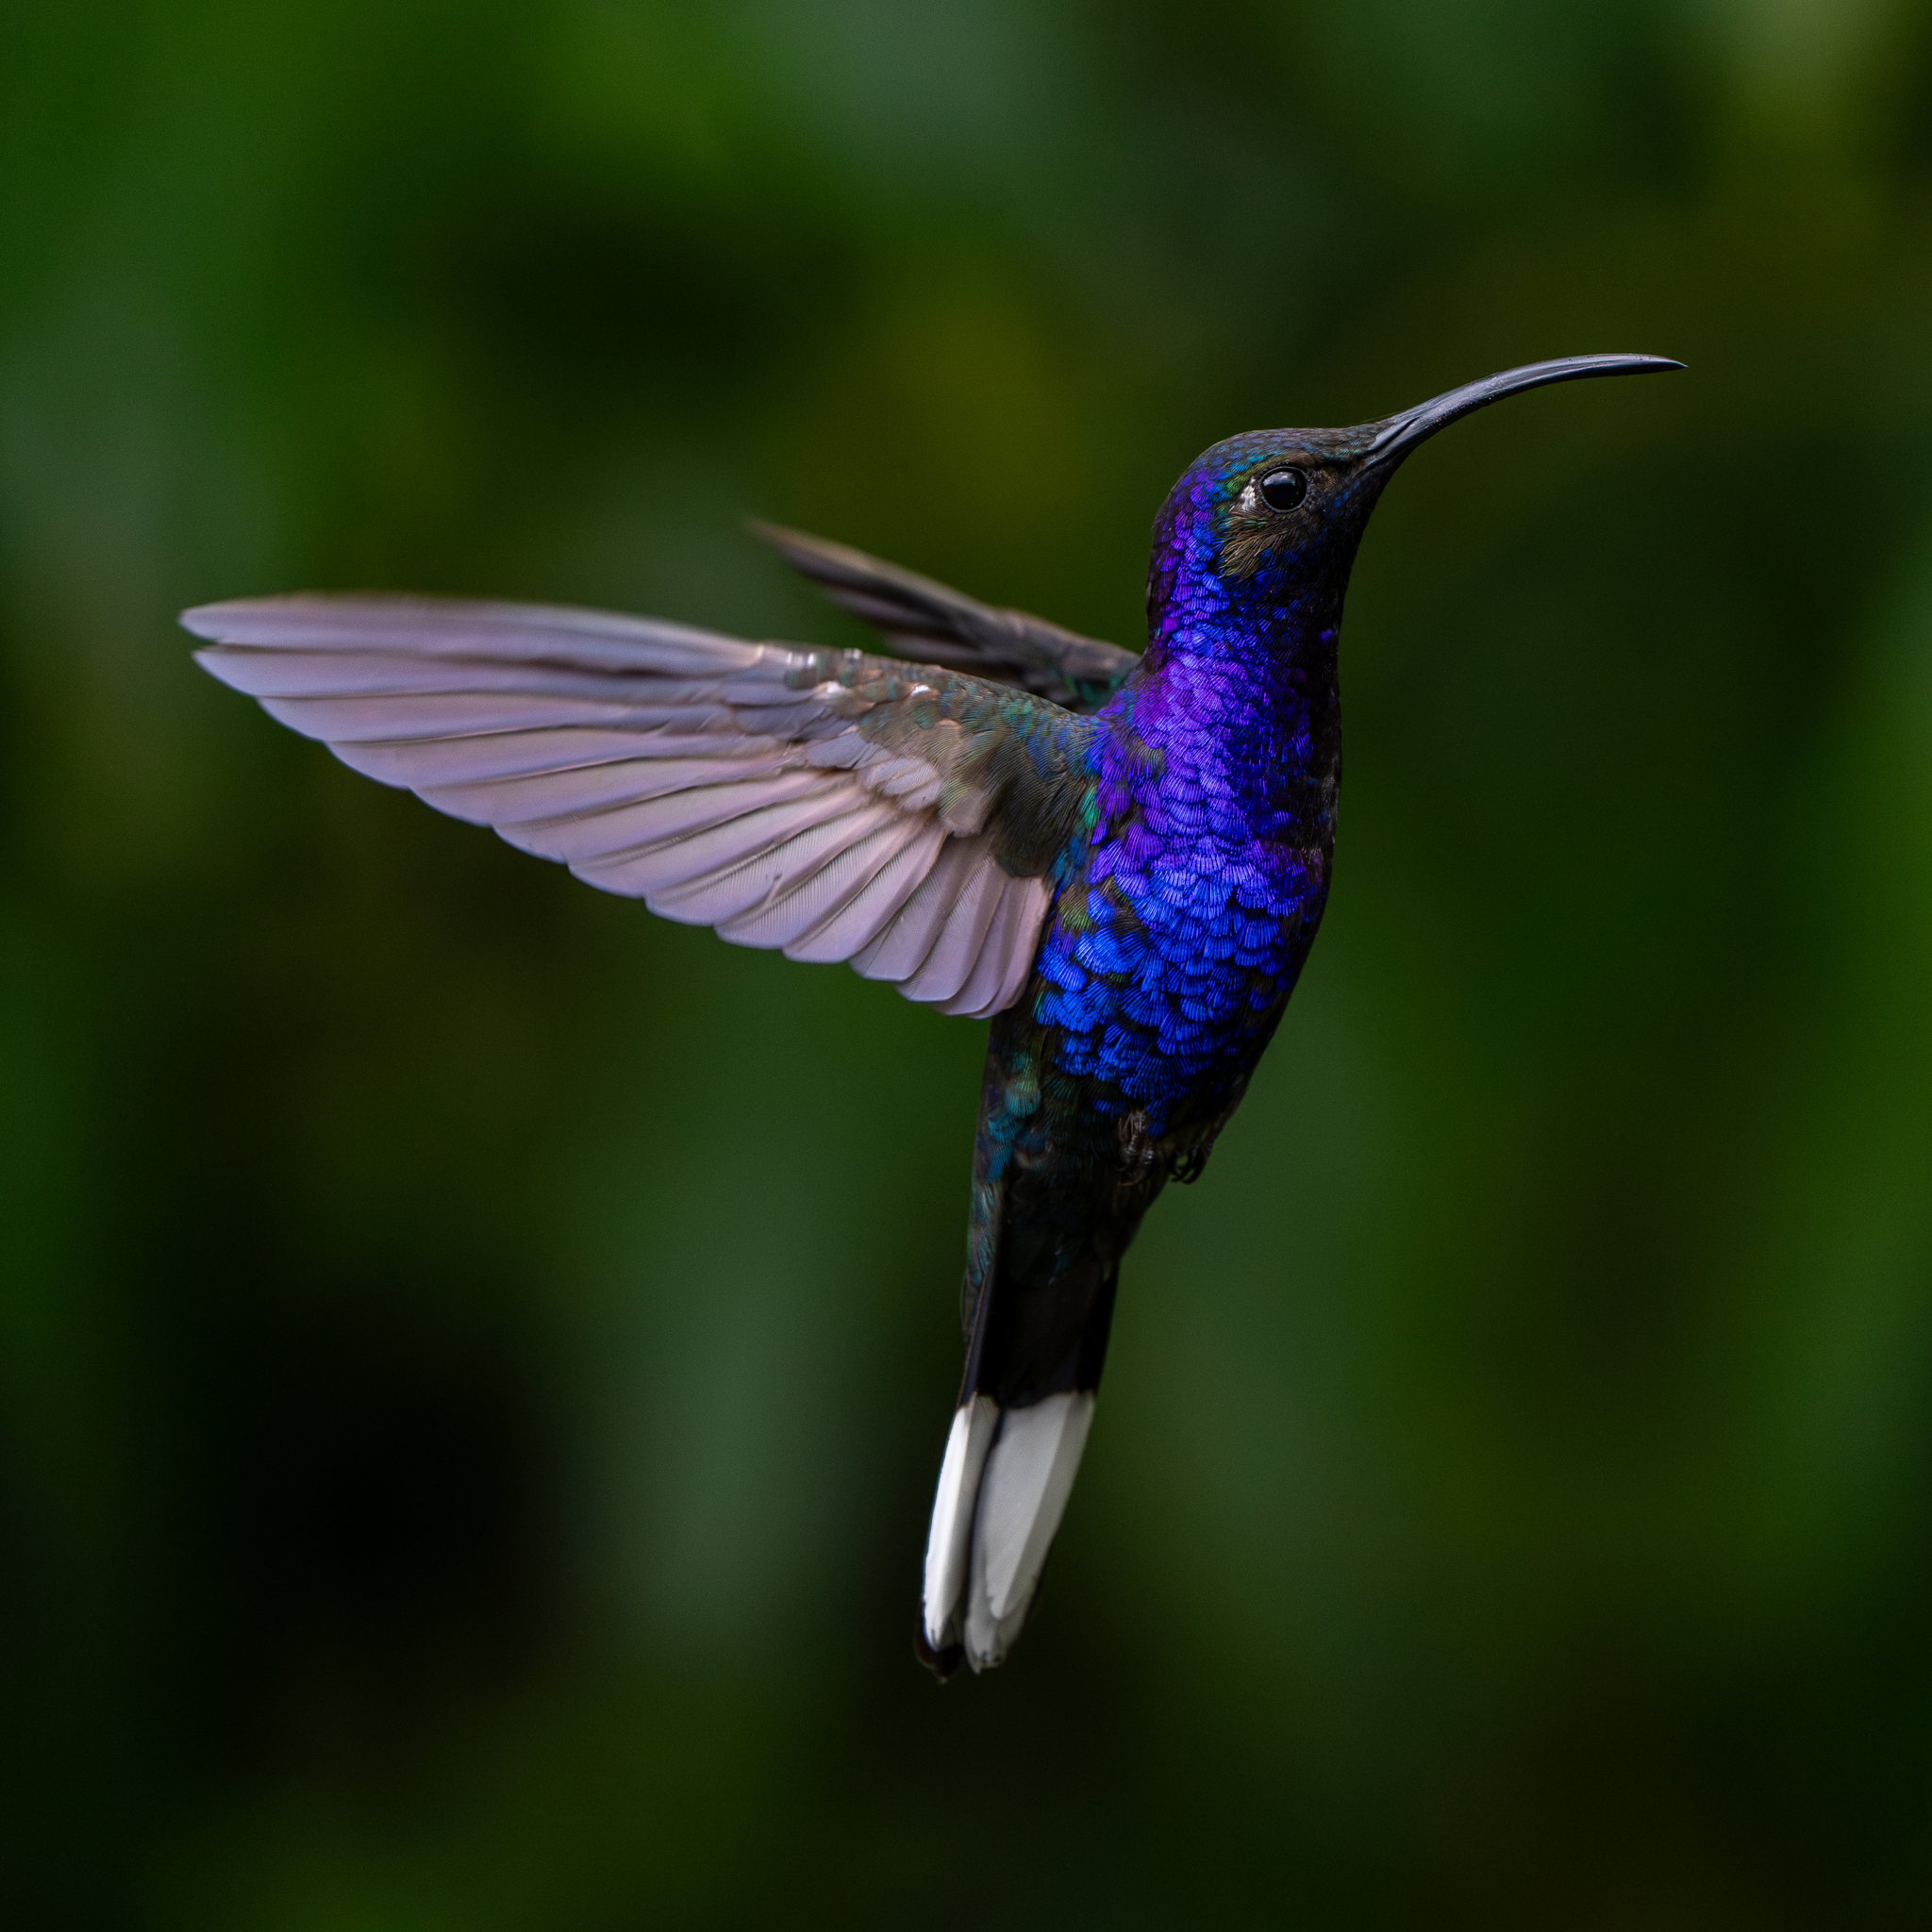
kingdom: Animalia
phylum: Chordata
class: Aves
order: Apodiformes
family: Trochilidae
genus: Campylopterus
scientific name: Campylopterus hemileucurus
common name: Violet sabrewing
